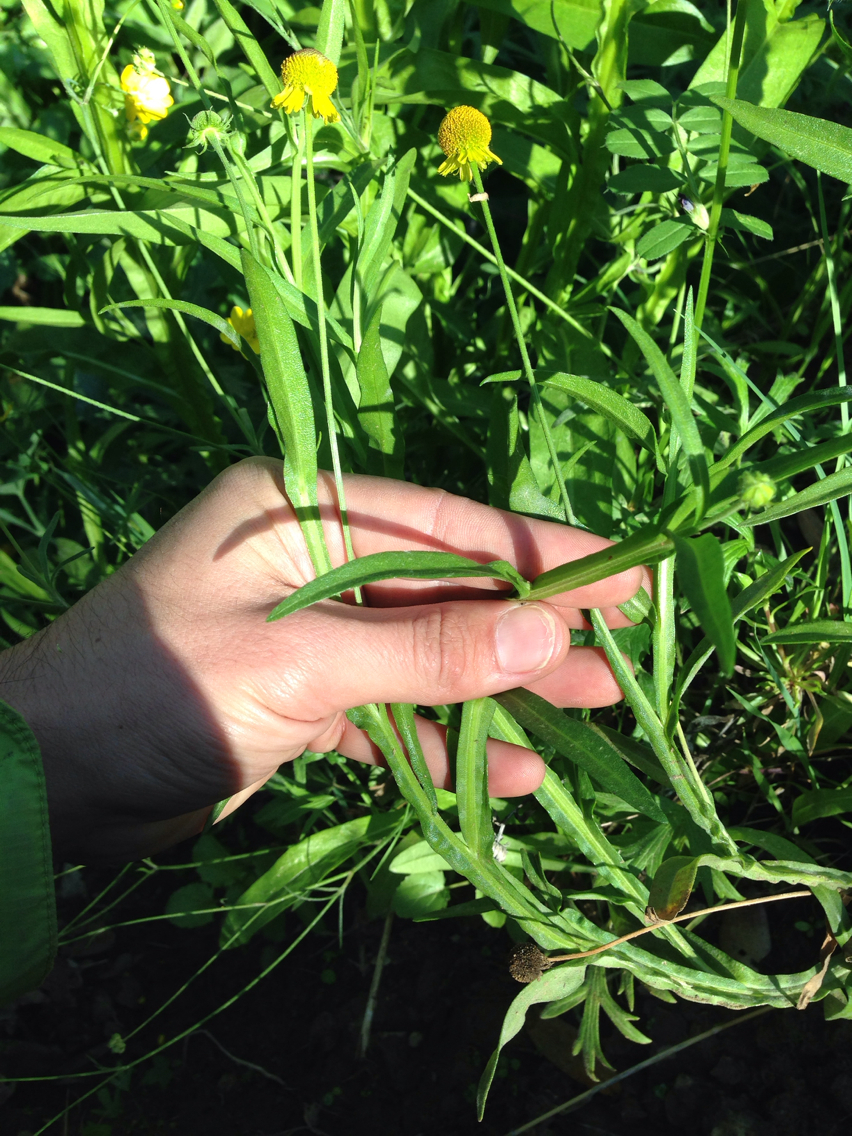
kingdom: Plantae
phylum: Tracheophyta
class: Magnoliopsida
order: Asterales
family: Asteraceae
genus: Helenium
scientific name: Helenium puberulum
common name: Sneezewort
